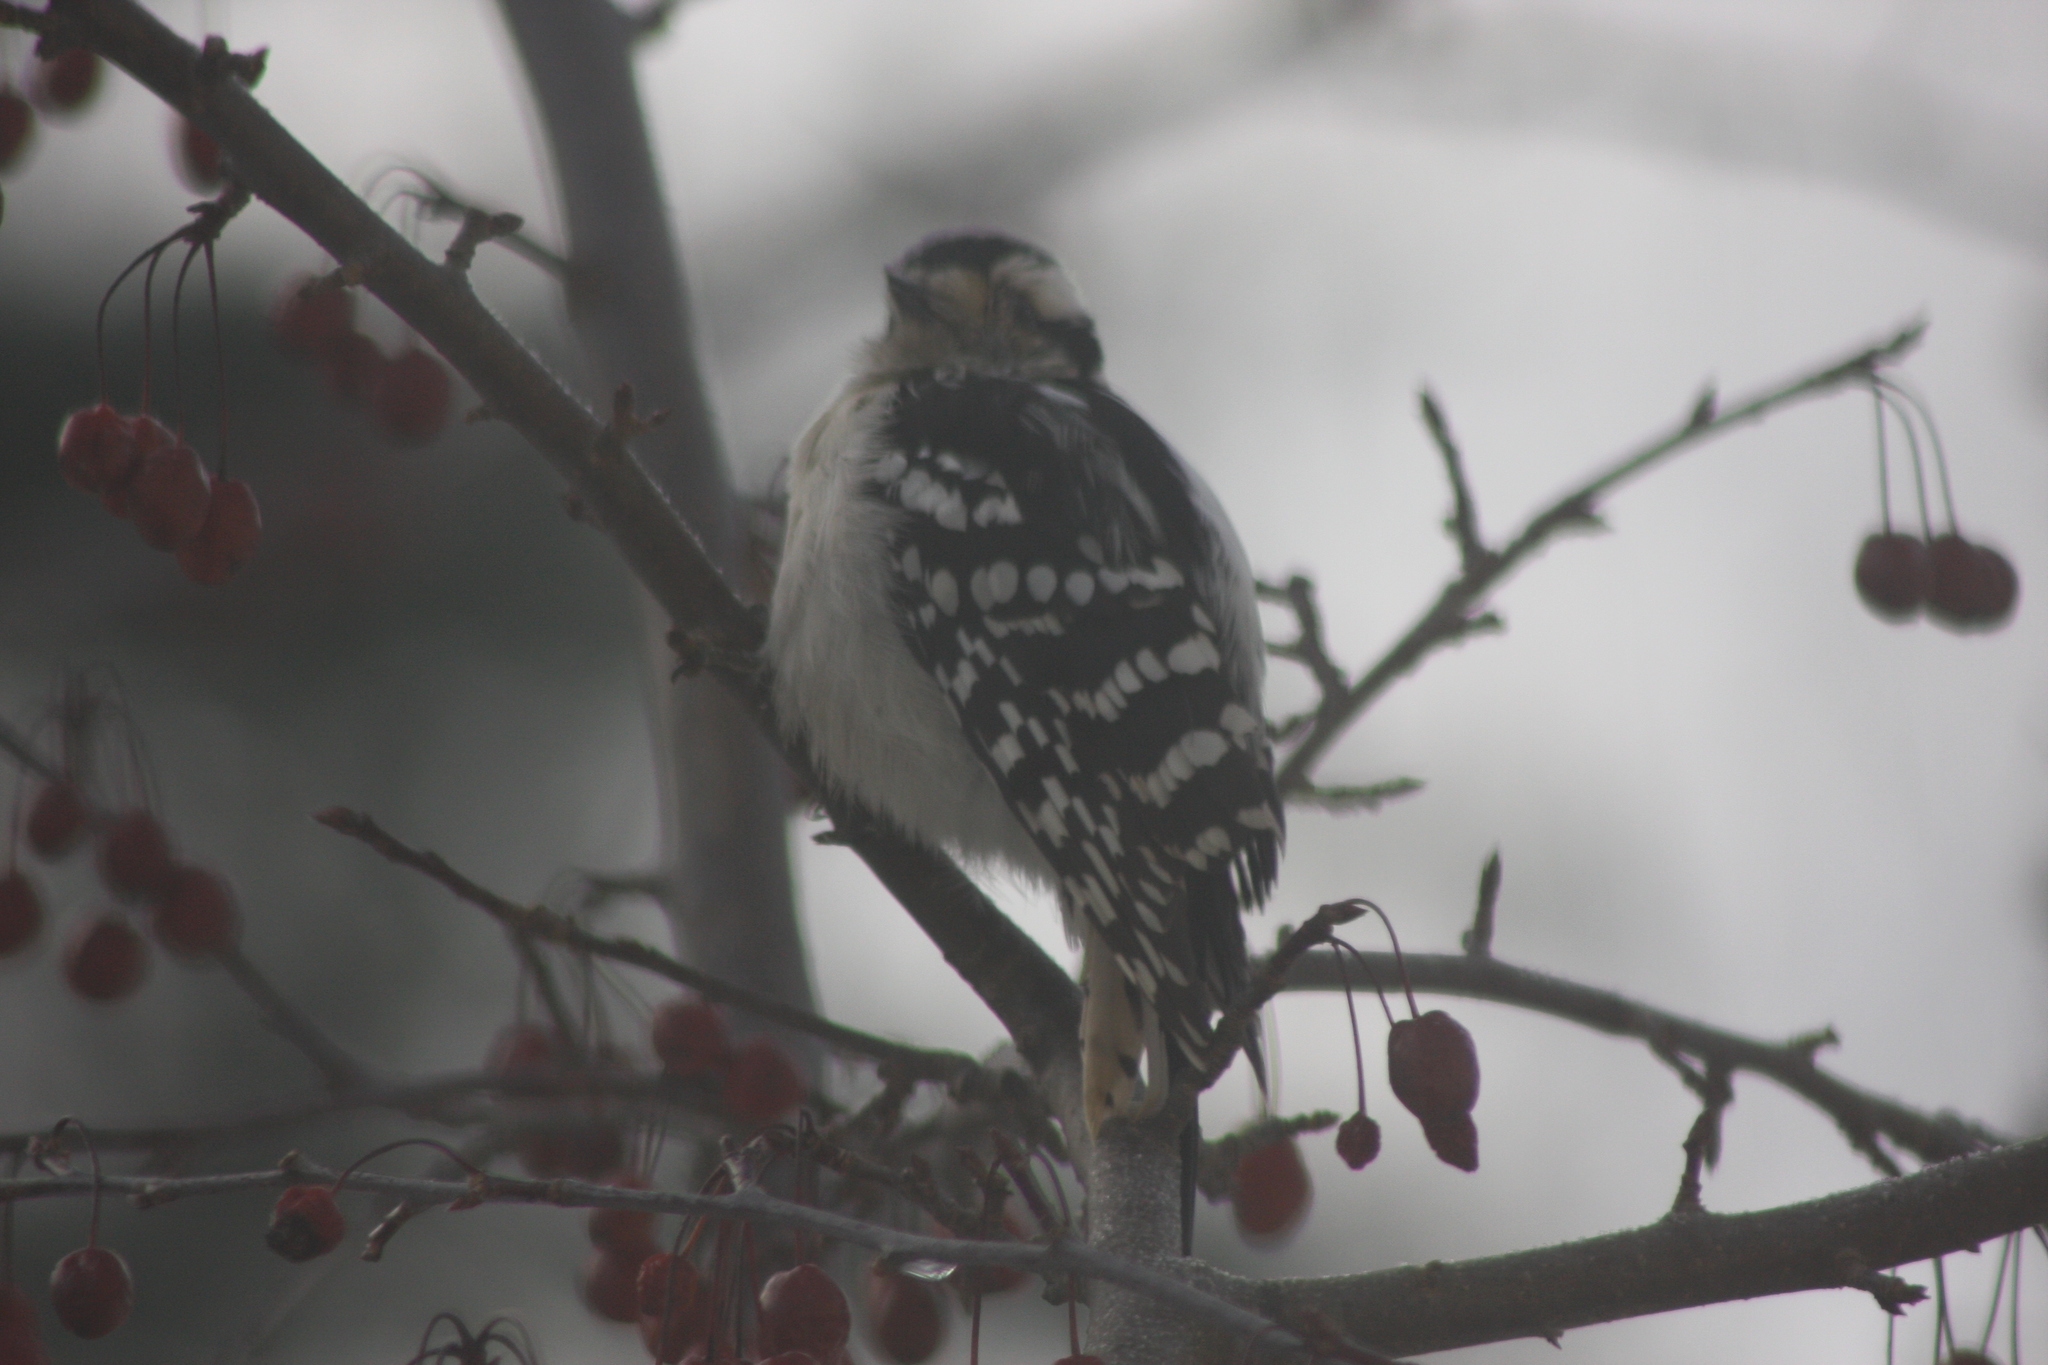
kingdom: Animalia
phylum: Chordata
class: Aves
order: Piciformes
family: Picidae
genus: Dryobates
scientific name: Dryobates pubescens
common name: Downy woodpecker
